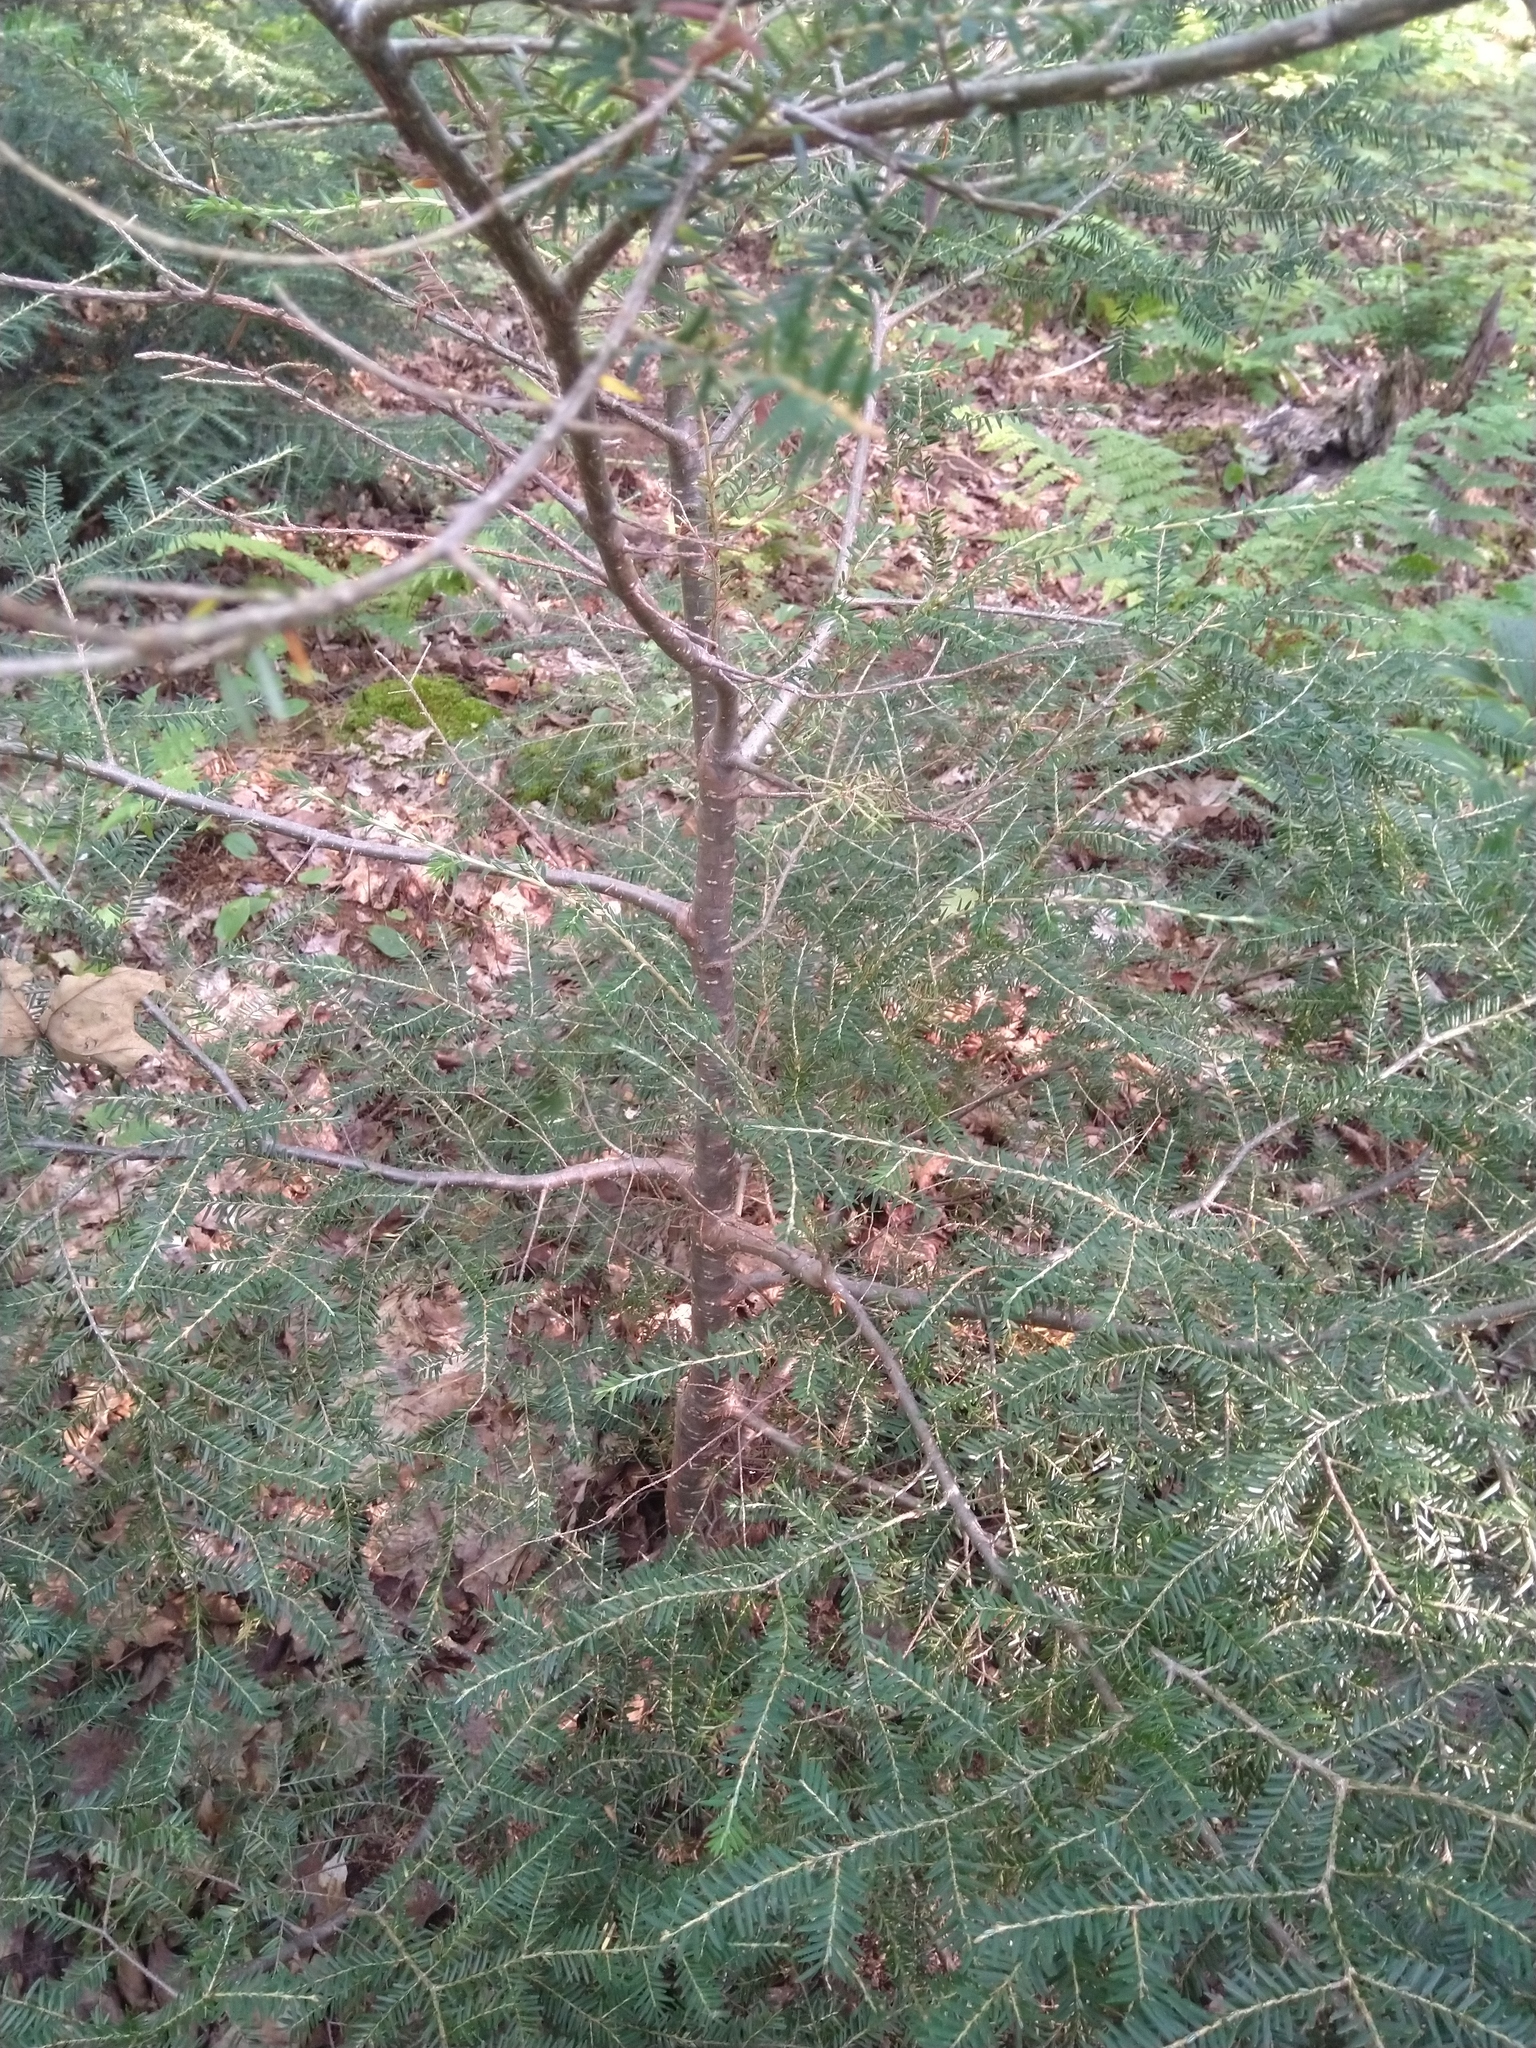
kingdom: Plantae
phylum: Tracheophyta
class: Pinopsida
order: Pinales
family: Pinaceae
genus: Tsuga
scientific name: Tsuga canadensis
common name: Eastern hemlock
